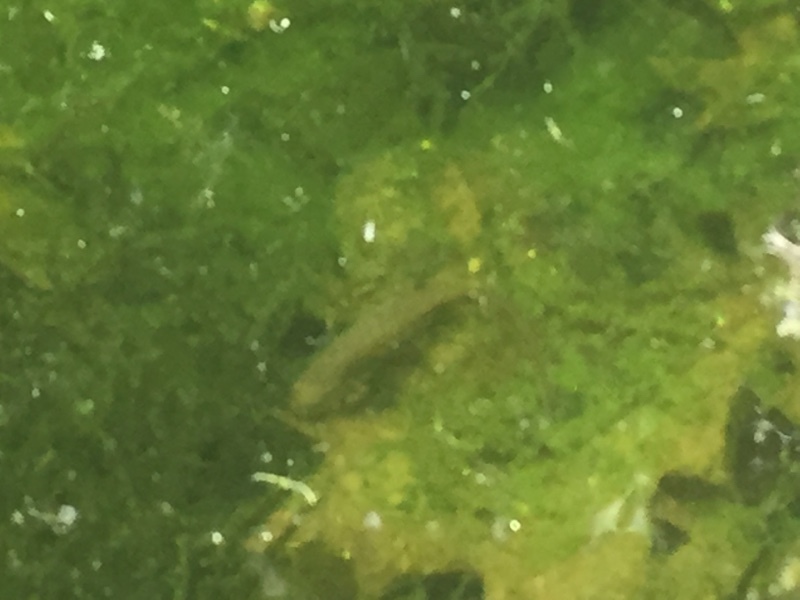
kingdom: Animalia
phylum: Chordata
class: Amphibia
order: Caudata
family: Salamandridae
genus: Lissotriton
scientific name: Lissotriton boscai
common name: Bosca's newt
